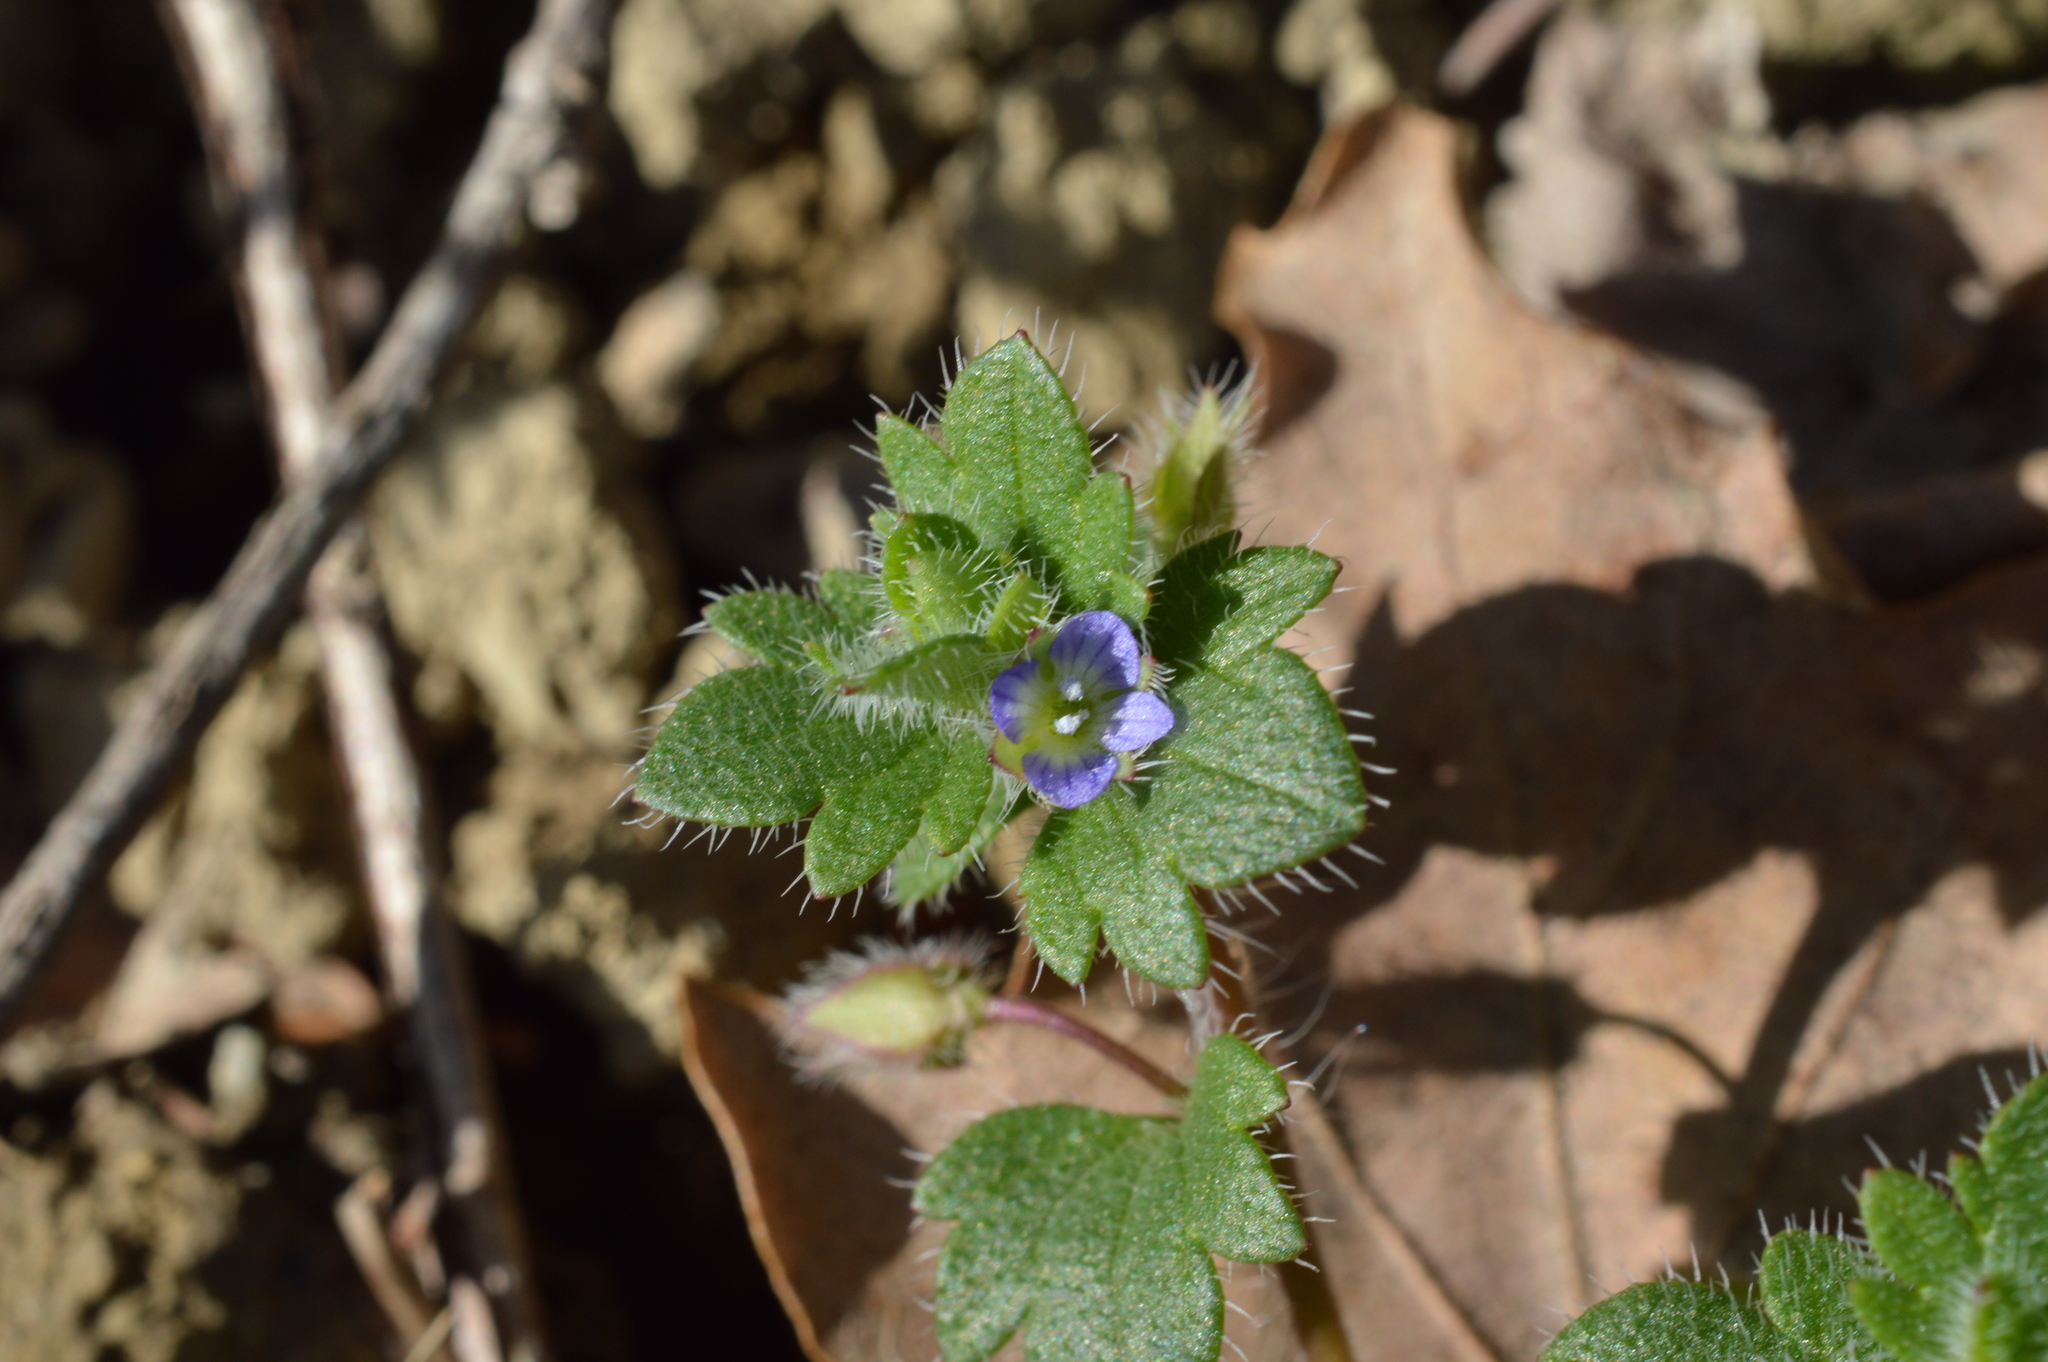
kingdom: Plantae
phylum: Tracheophyta
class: Magnoliopsida
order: Lamiales
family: Plantaginaceae
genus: Veronica
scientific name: Veronica hederifolia
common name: Ivy-leaved speedwell
